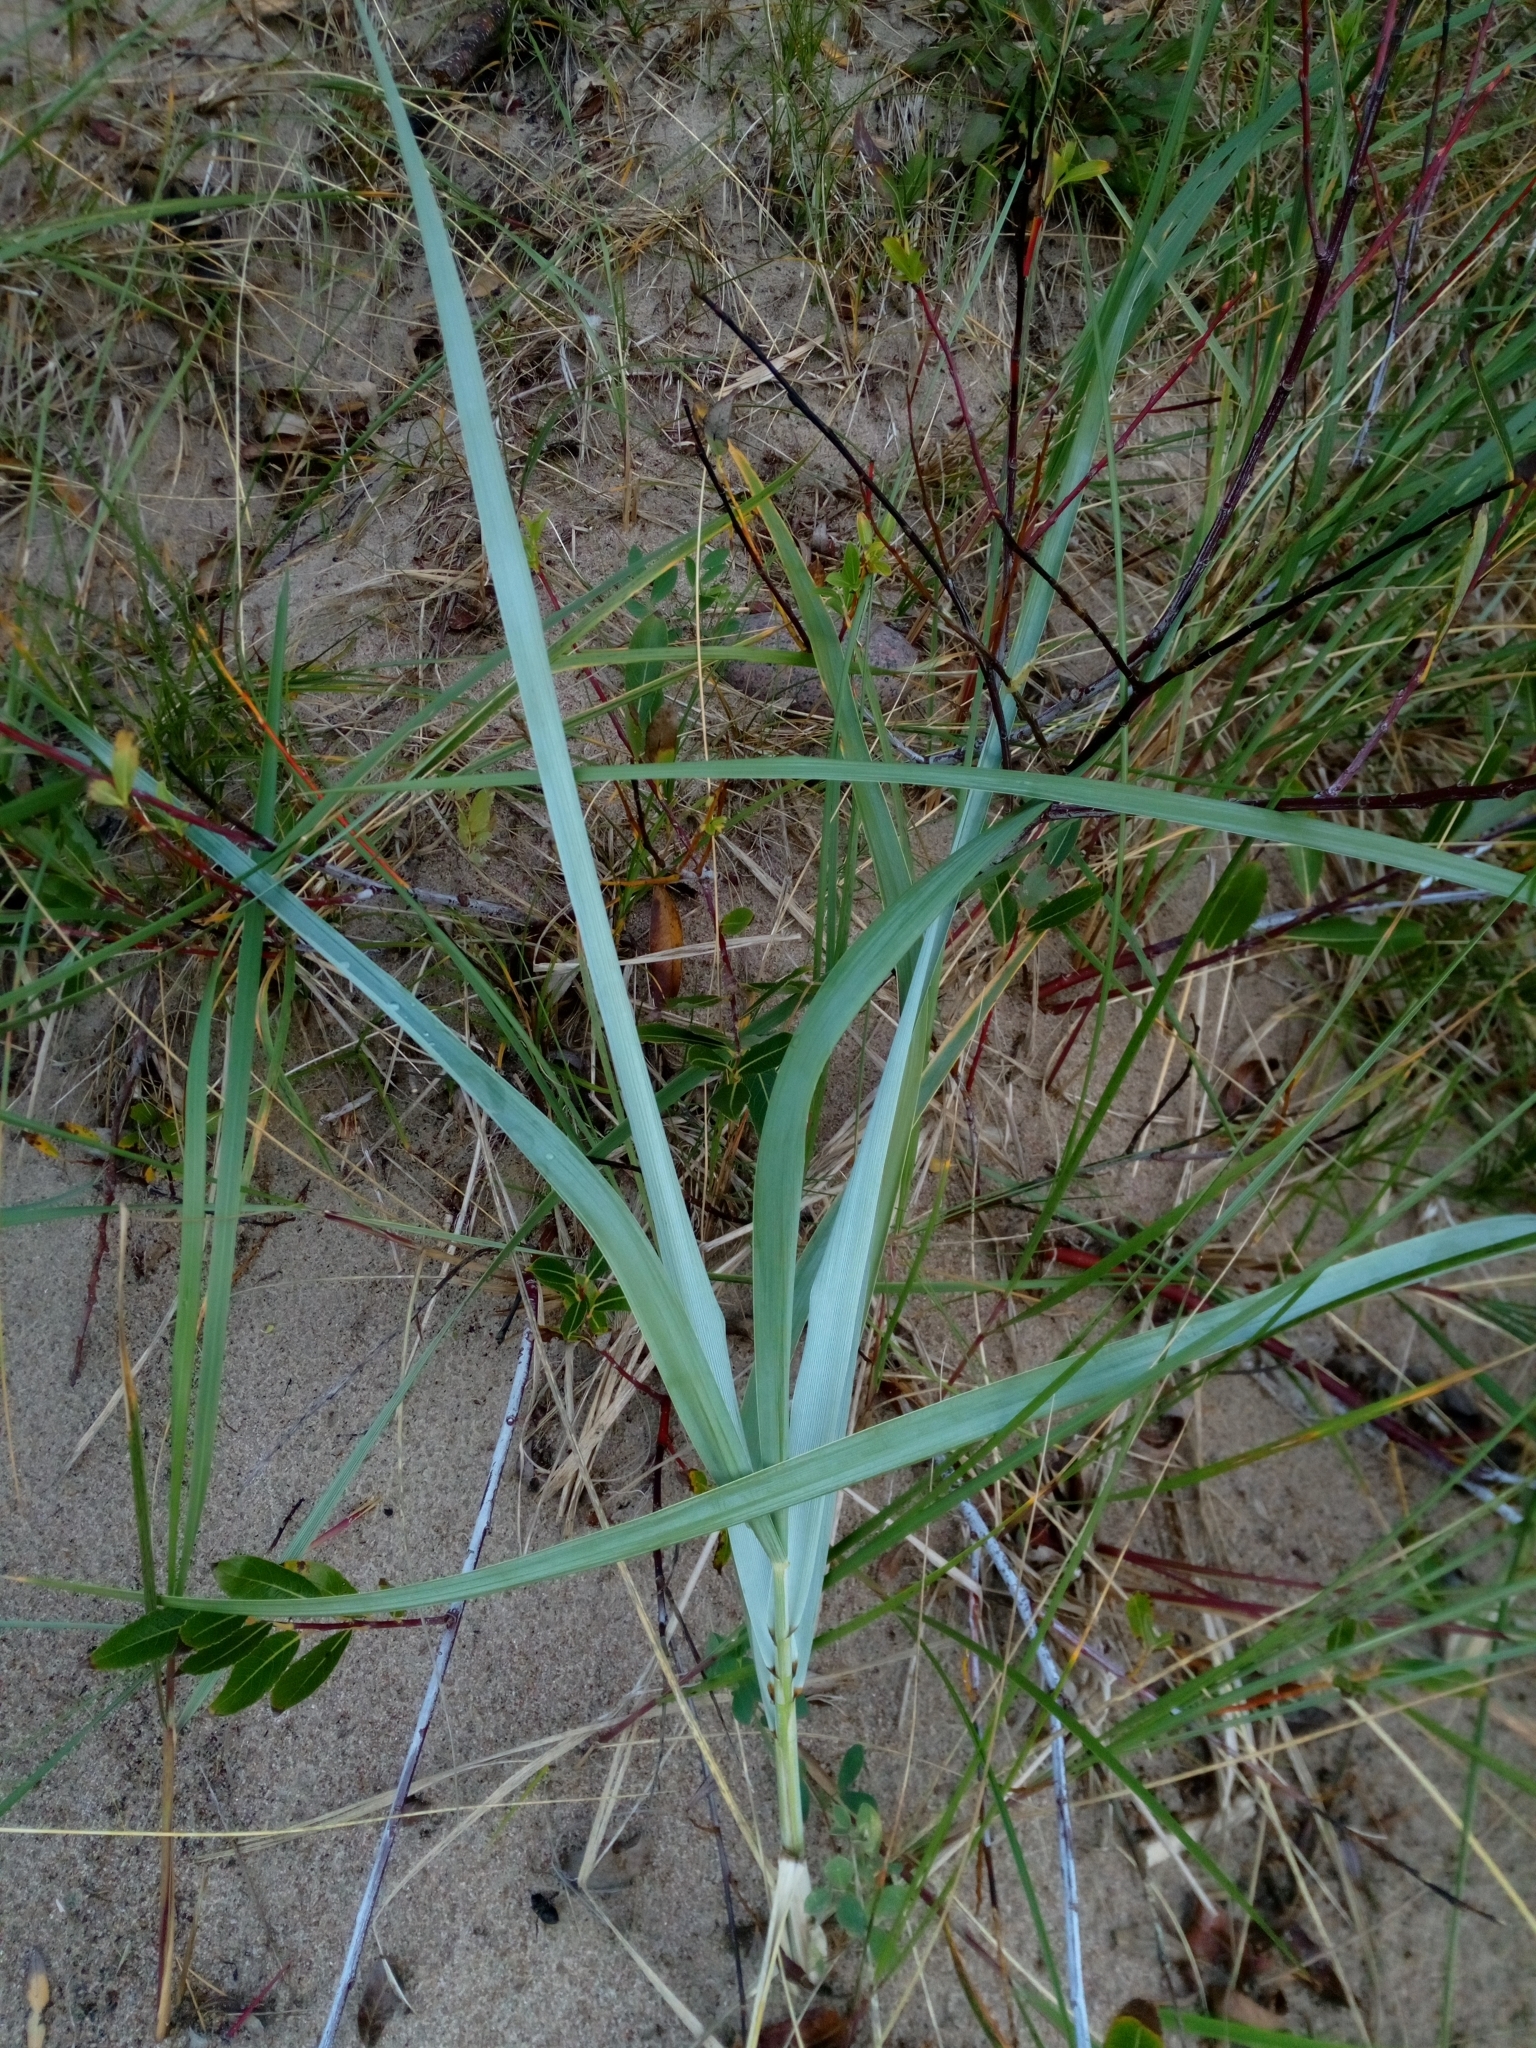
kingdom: Plantae
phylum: Tracheophyta
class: Liliopsida
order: Poales
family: Poaceae
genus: Leymus
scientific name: Leymus arenarius
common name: Lyme-grass
